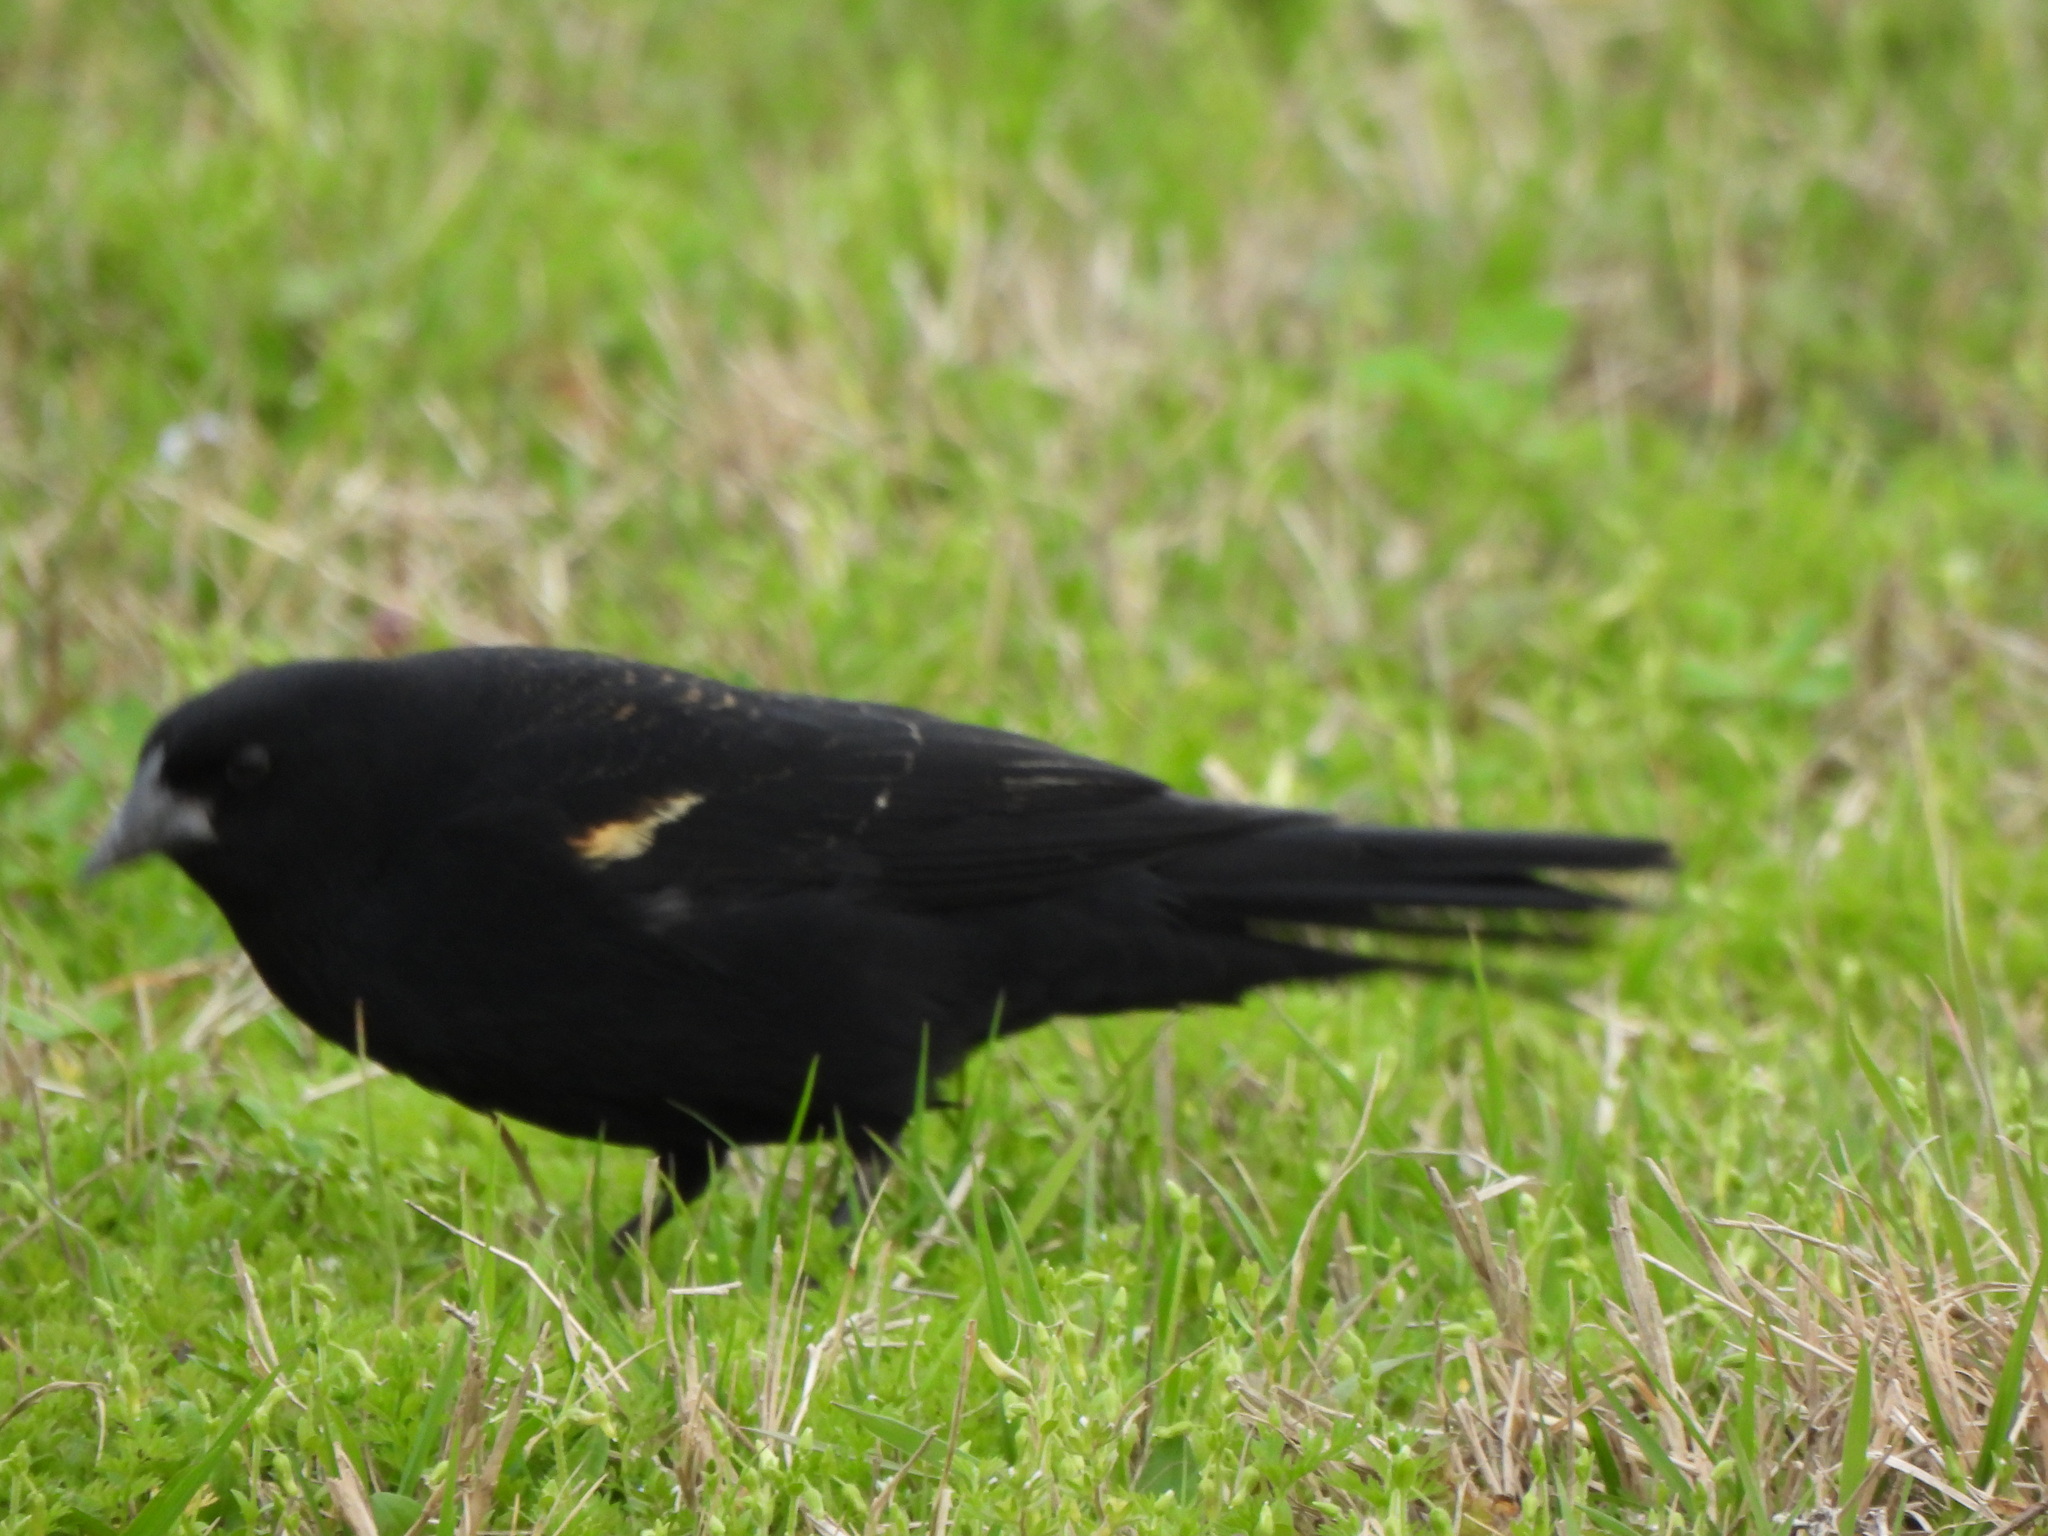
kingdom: Animalia
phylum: Chordata
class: Aves
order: Passeriformes
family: Icteridae
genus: Agelaius
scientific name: Agelaius phoeniceus
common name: Red-winged blackbird
